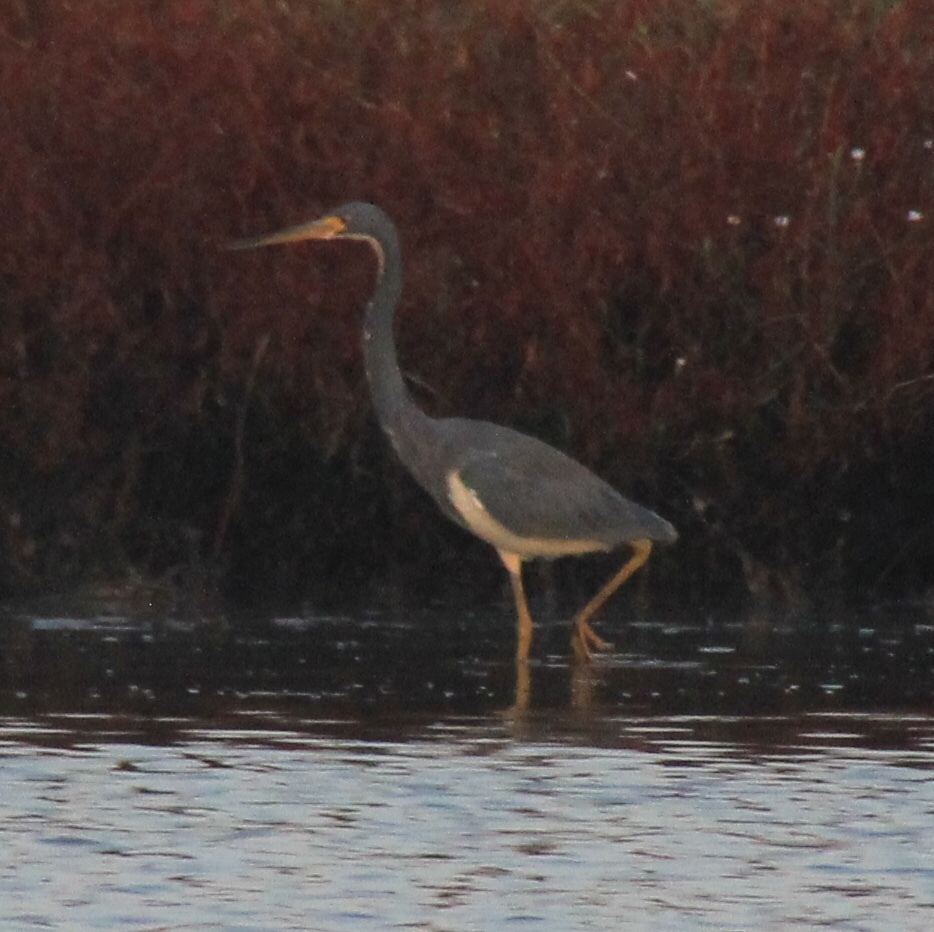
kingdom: Animalia
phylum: Chordata
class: Aves
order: Pelecaniformes
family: Ardeidae
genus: Egretta
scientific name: Egretta tricolor
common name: Tricolored heron
